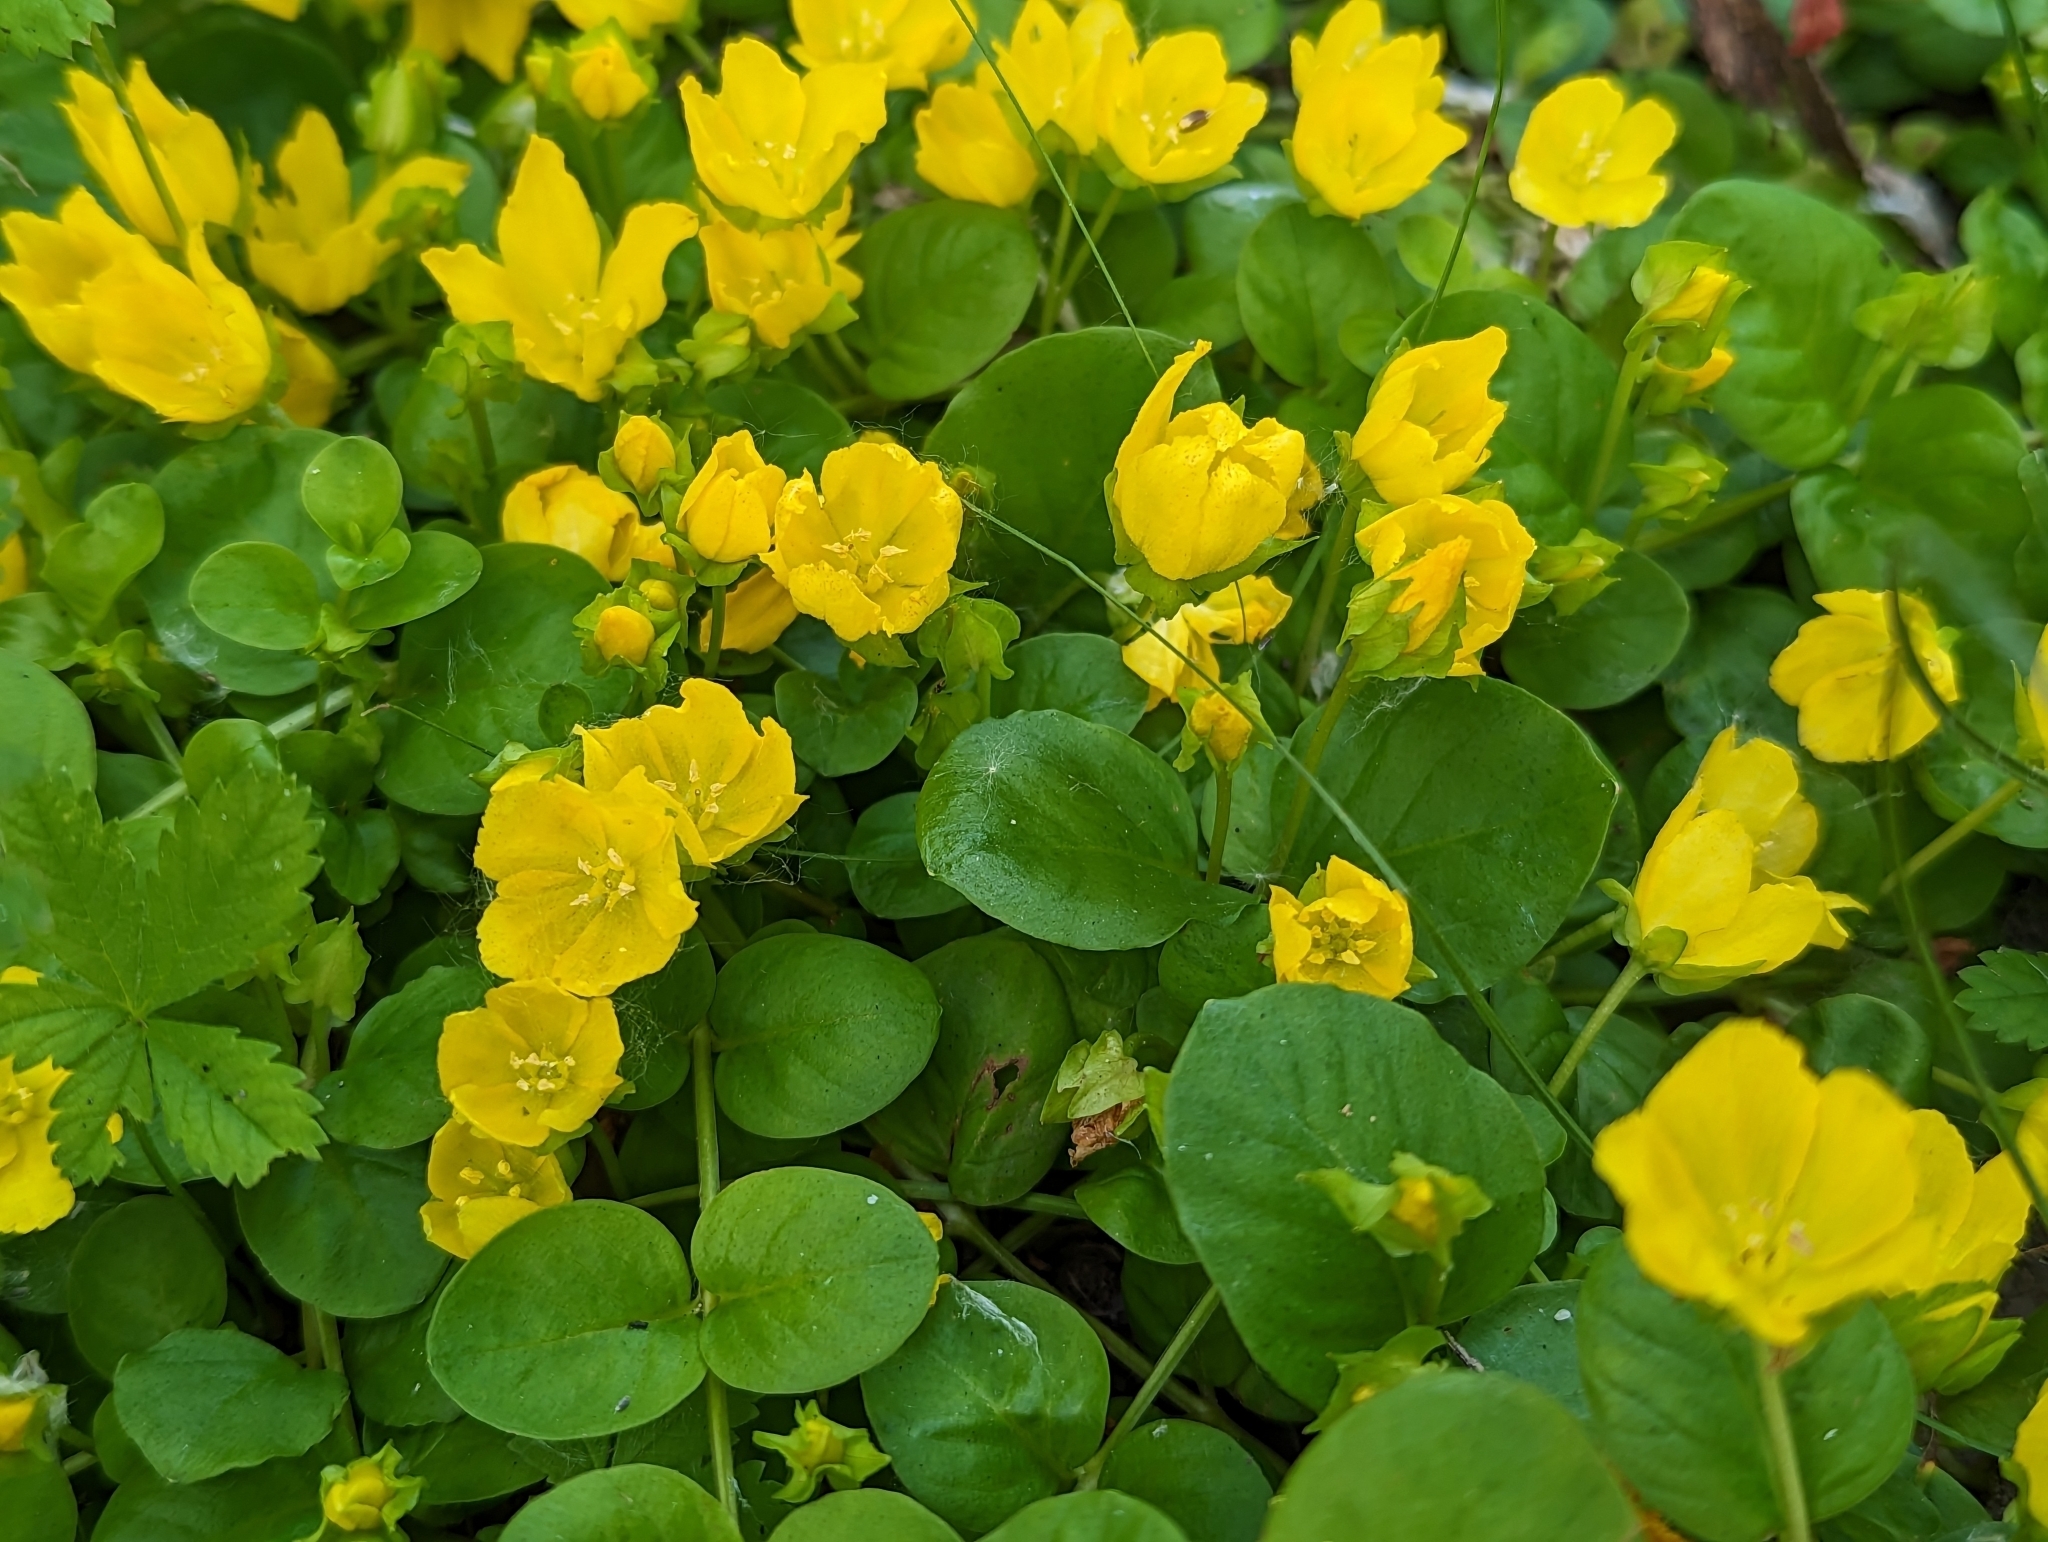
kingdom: Plantae
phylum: Tracheophyta
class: Magnoliopsida
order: Ericales
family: Primulaceae
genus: Lysimachia
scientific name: Lysimachia nummularia
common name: Moneywort
